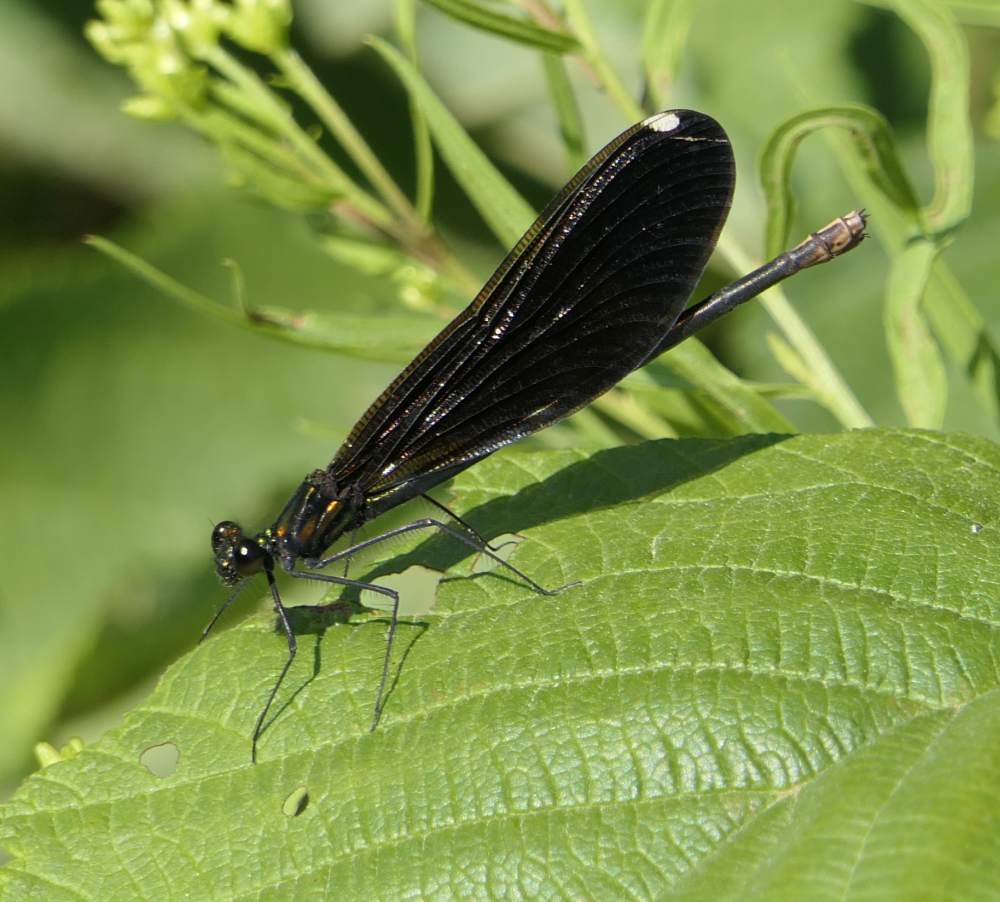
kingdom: Animalia
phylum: Arthropoda
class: Insecta
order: Odonata
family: Calopterygidae
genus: Calopteryx
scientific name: Calopteryx maculata
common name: Ebony jewelwing
